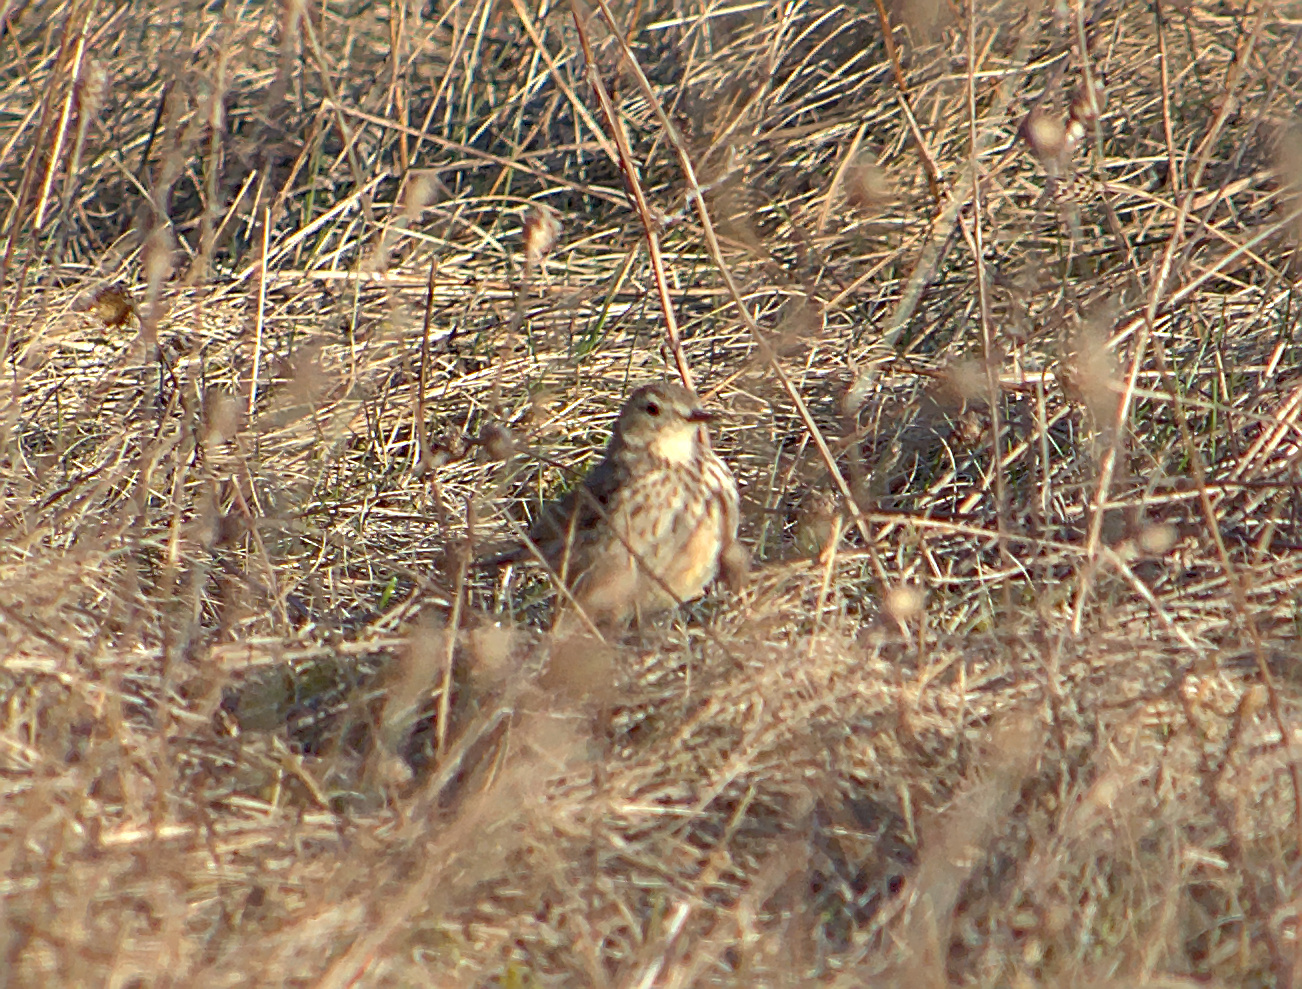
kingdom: Animalia
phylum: Chordata
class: Aves
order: Passeriformes
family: Motacillidae
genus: Anthus
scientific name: Anthus rubescens
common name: Buff-bellied pipit
